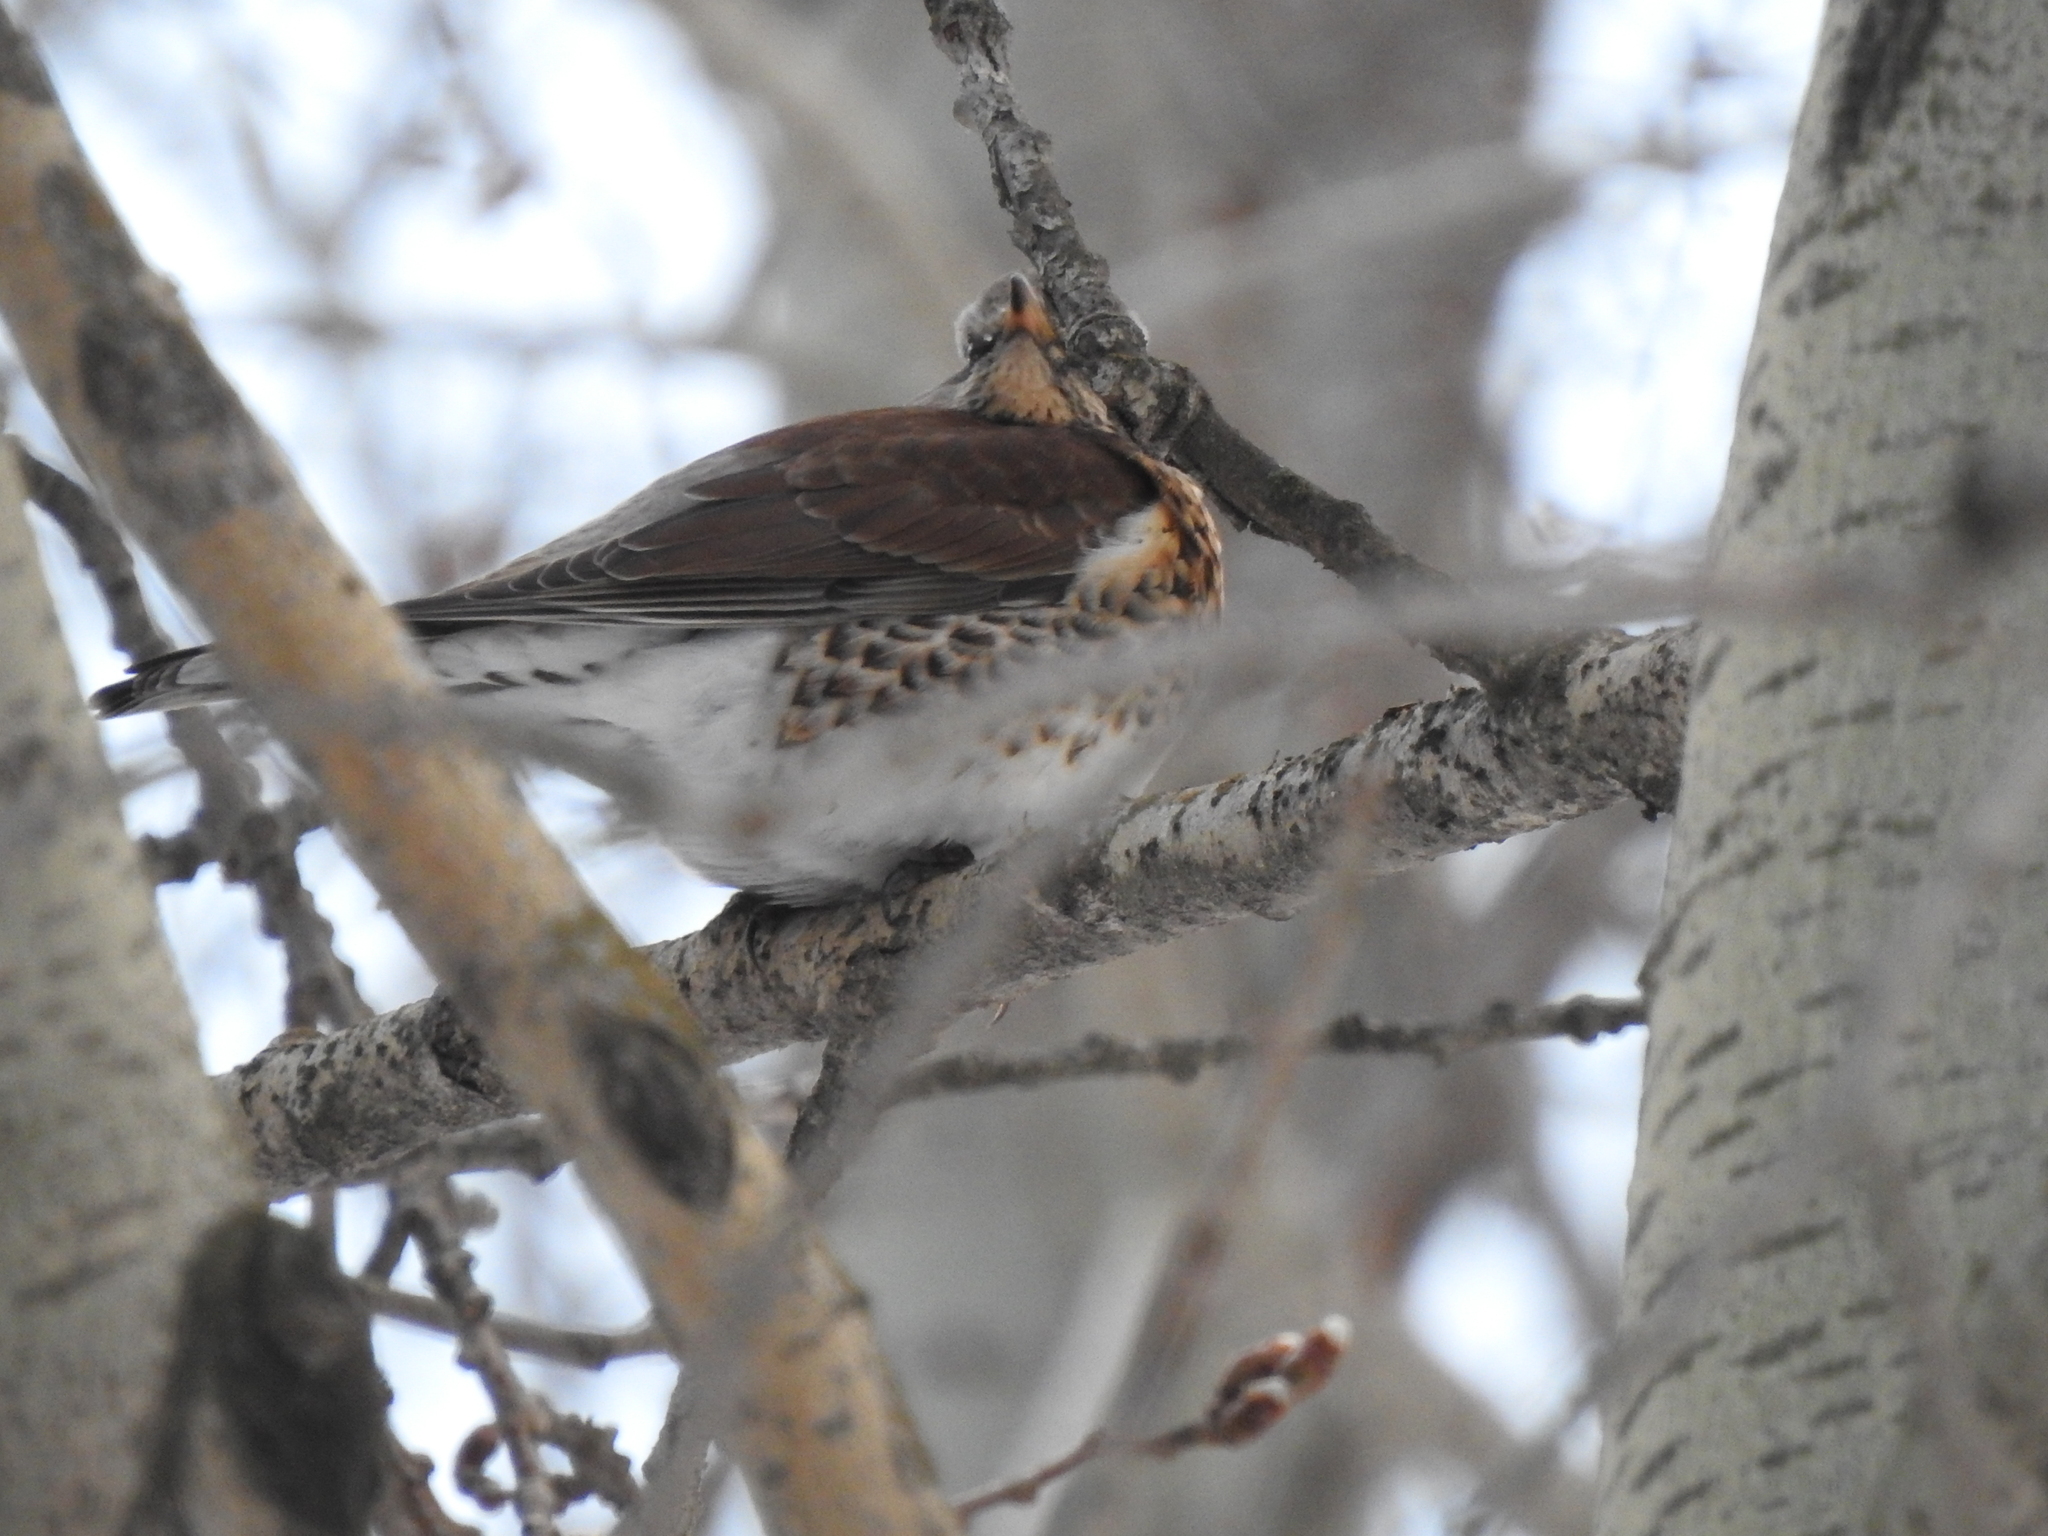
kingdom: Animalia
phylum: Chordata
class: Aves
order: Passeriformes
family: Turdidae
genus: Turdus
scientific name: Turdus pilaris
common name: Fieldfare
